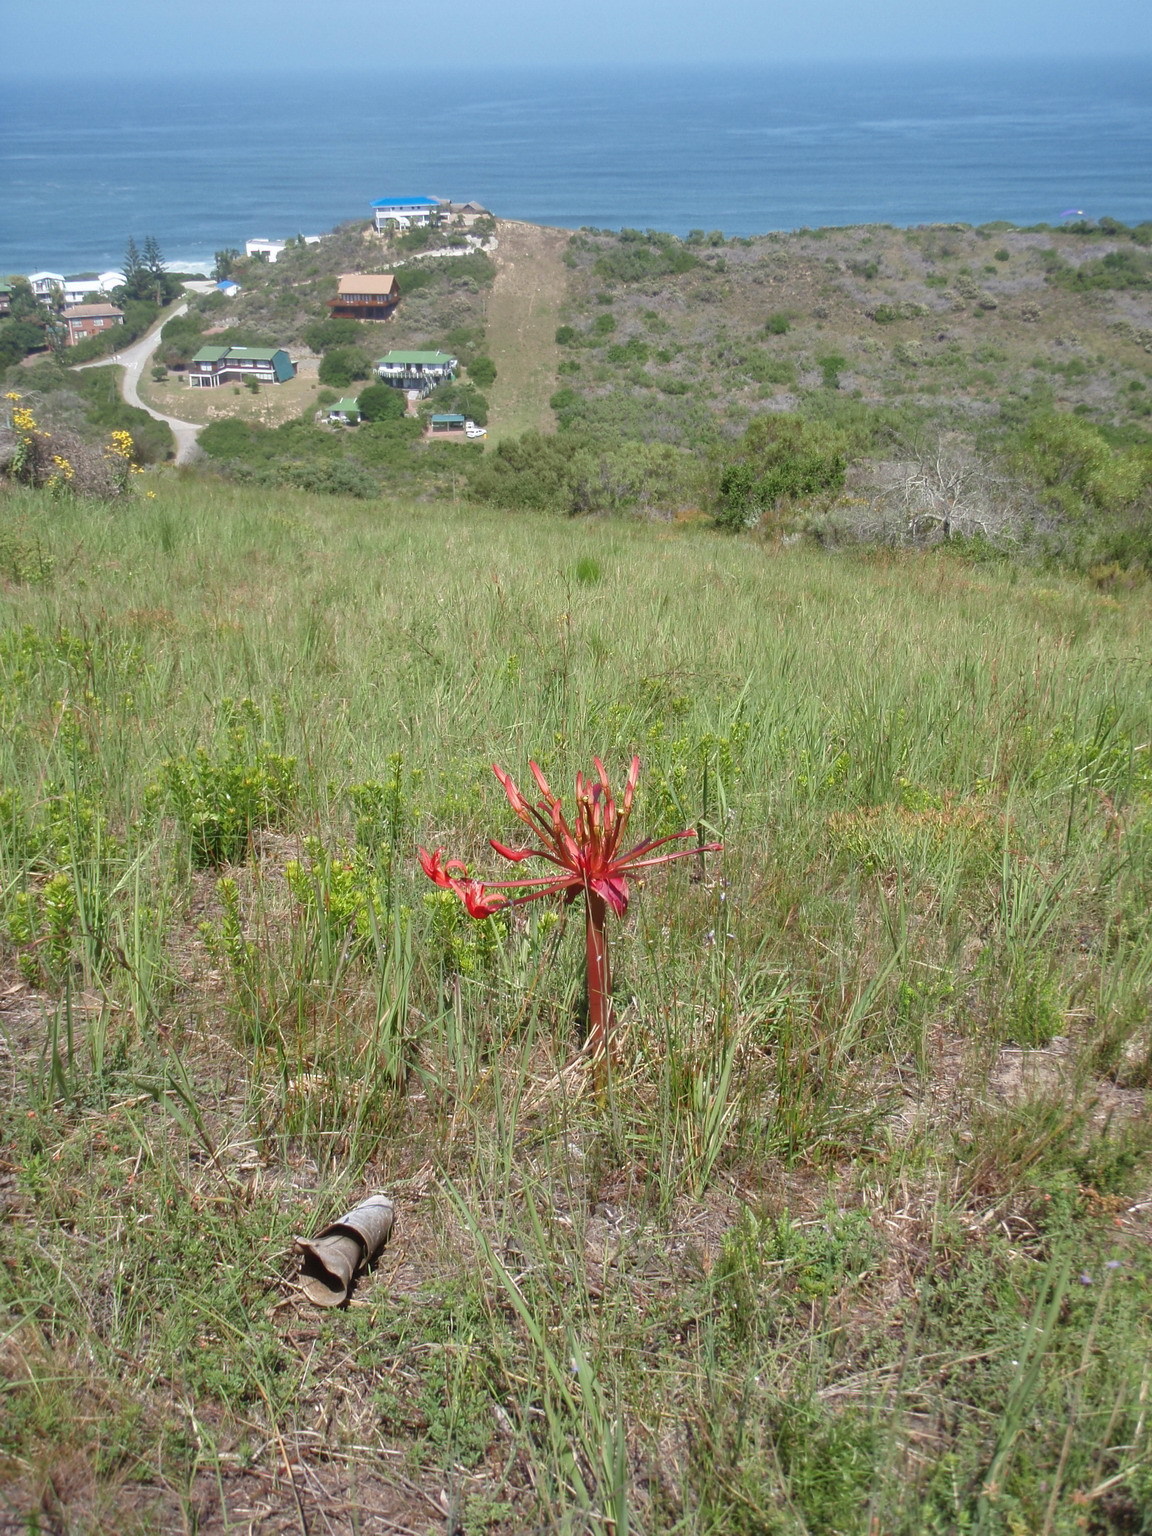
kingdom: Plantae
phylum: Tracheophyta
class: Liliopsida
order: Asparagales
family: Amaryllidaceae
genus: Brunsvigia
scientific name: Brunsvigia orientalis
